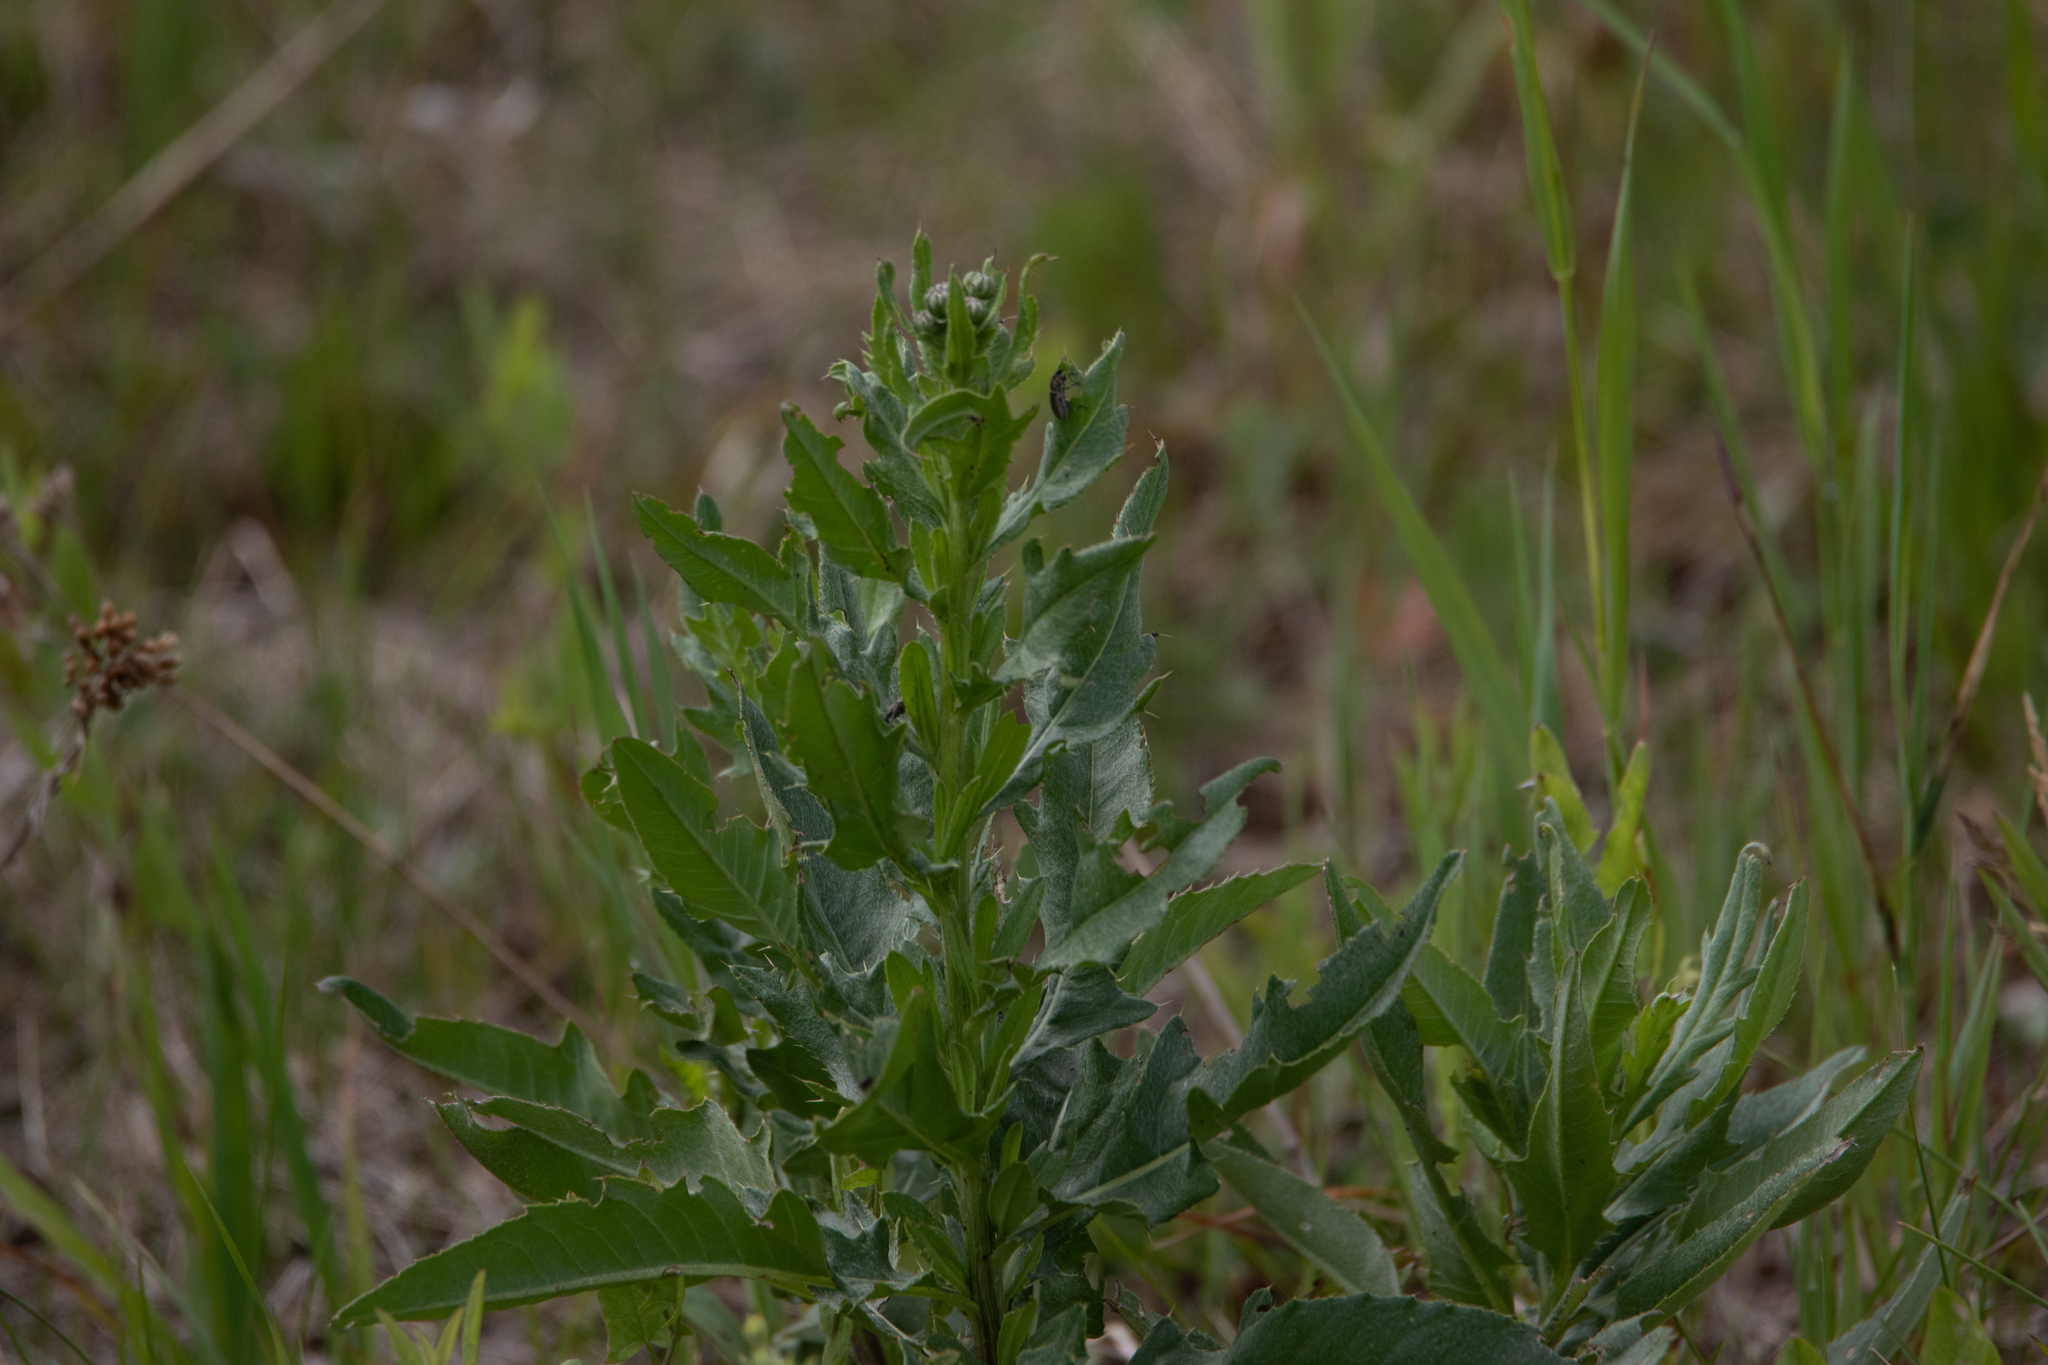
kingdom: Plantae
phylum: Tracheophyta
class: Magnoliopsida
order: Asterales
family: Asteraceae
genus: Cirsium
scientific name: Cirsium arvense
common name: Creeping thistle
